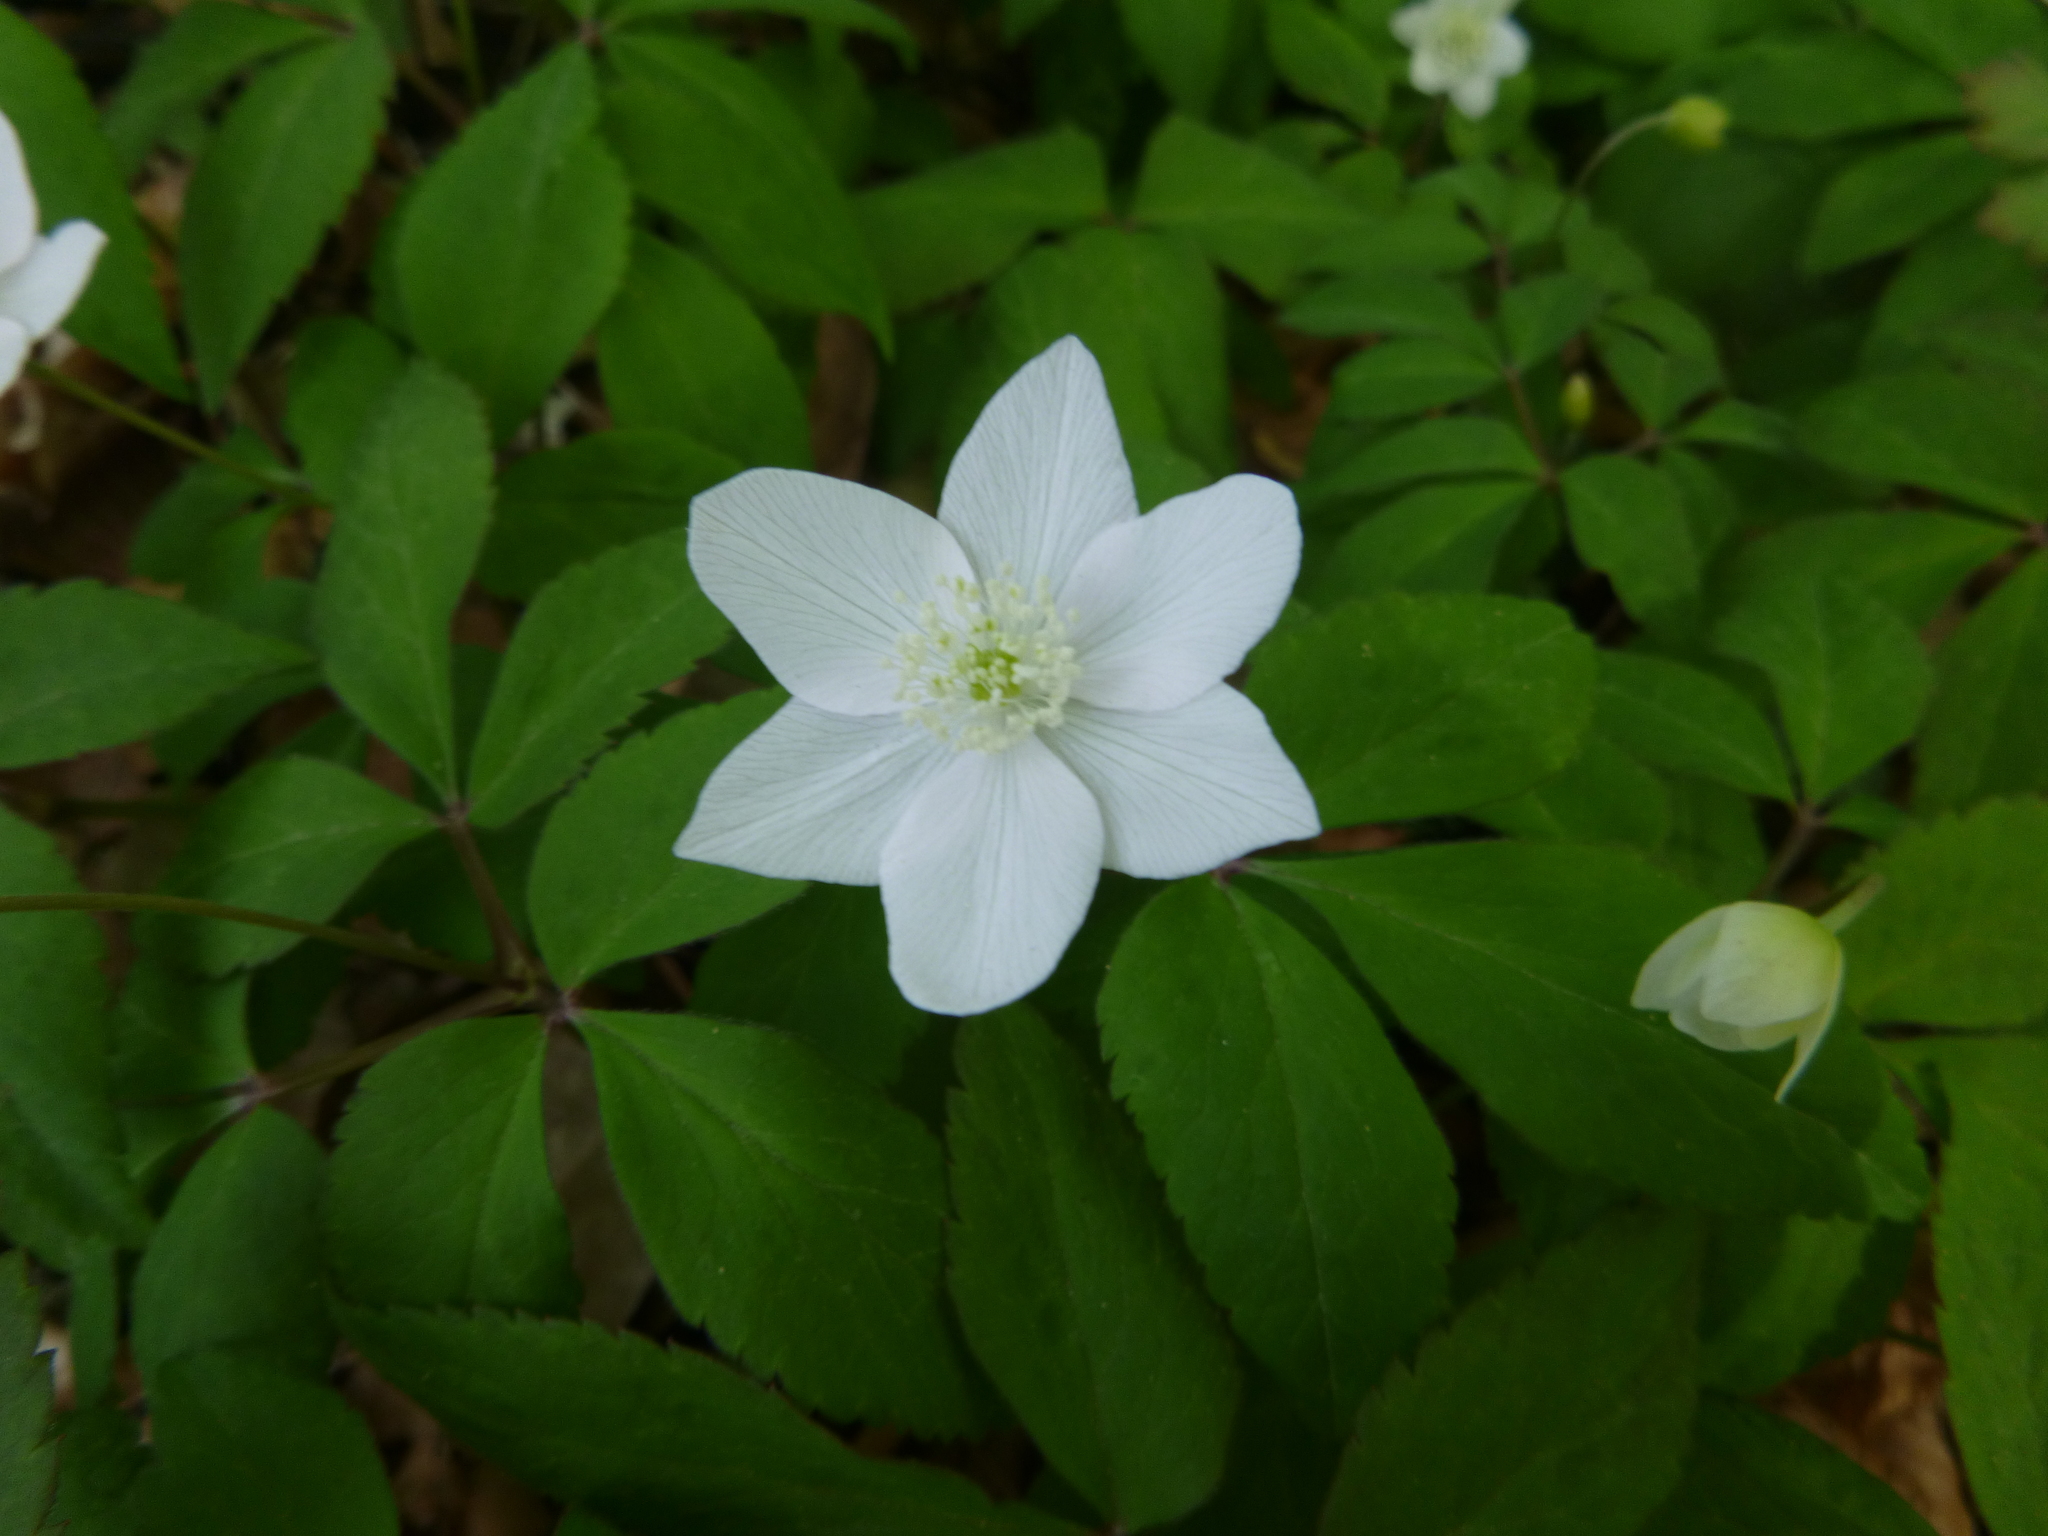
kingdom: Plantae
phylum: Tracheophyta
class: Magnoliopsida
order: Ranunculales
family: Ranunculaceae
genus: Anemone
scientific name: Anemone trifolia
